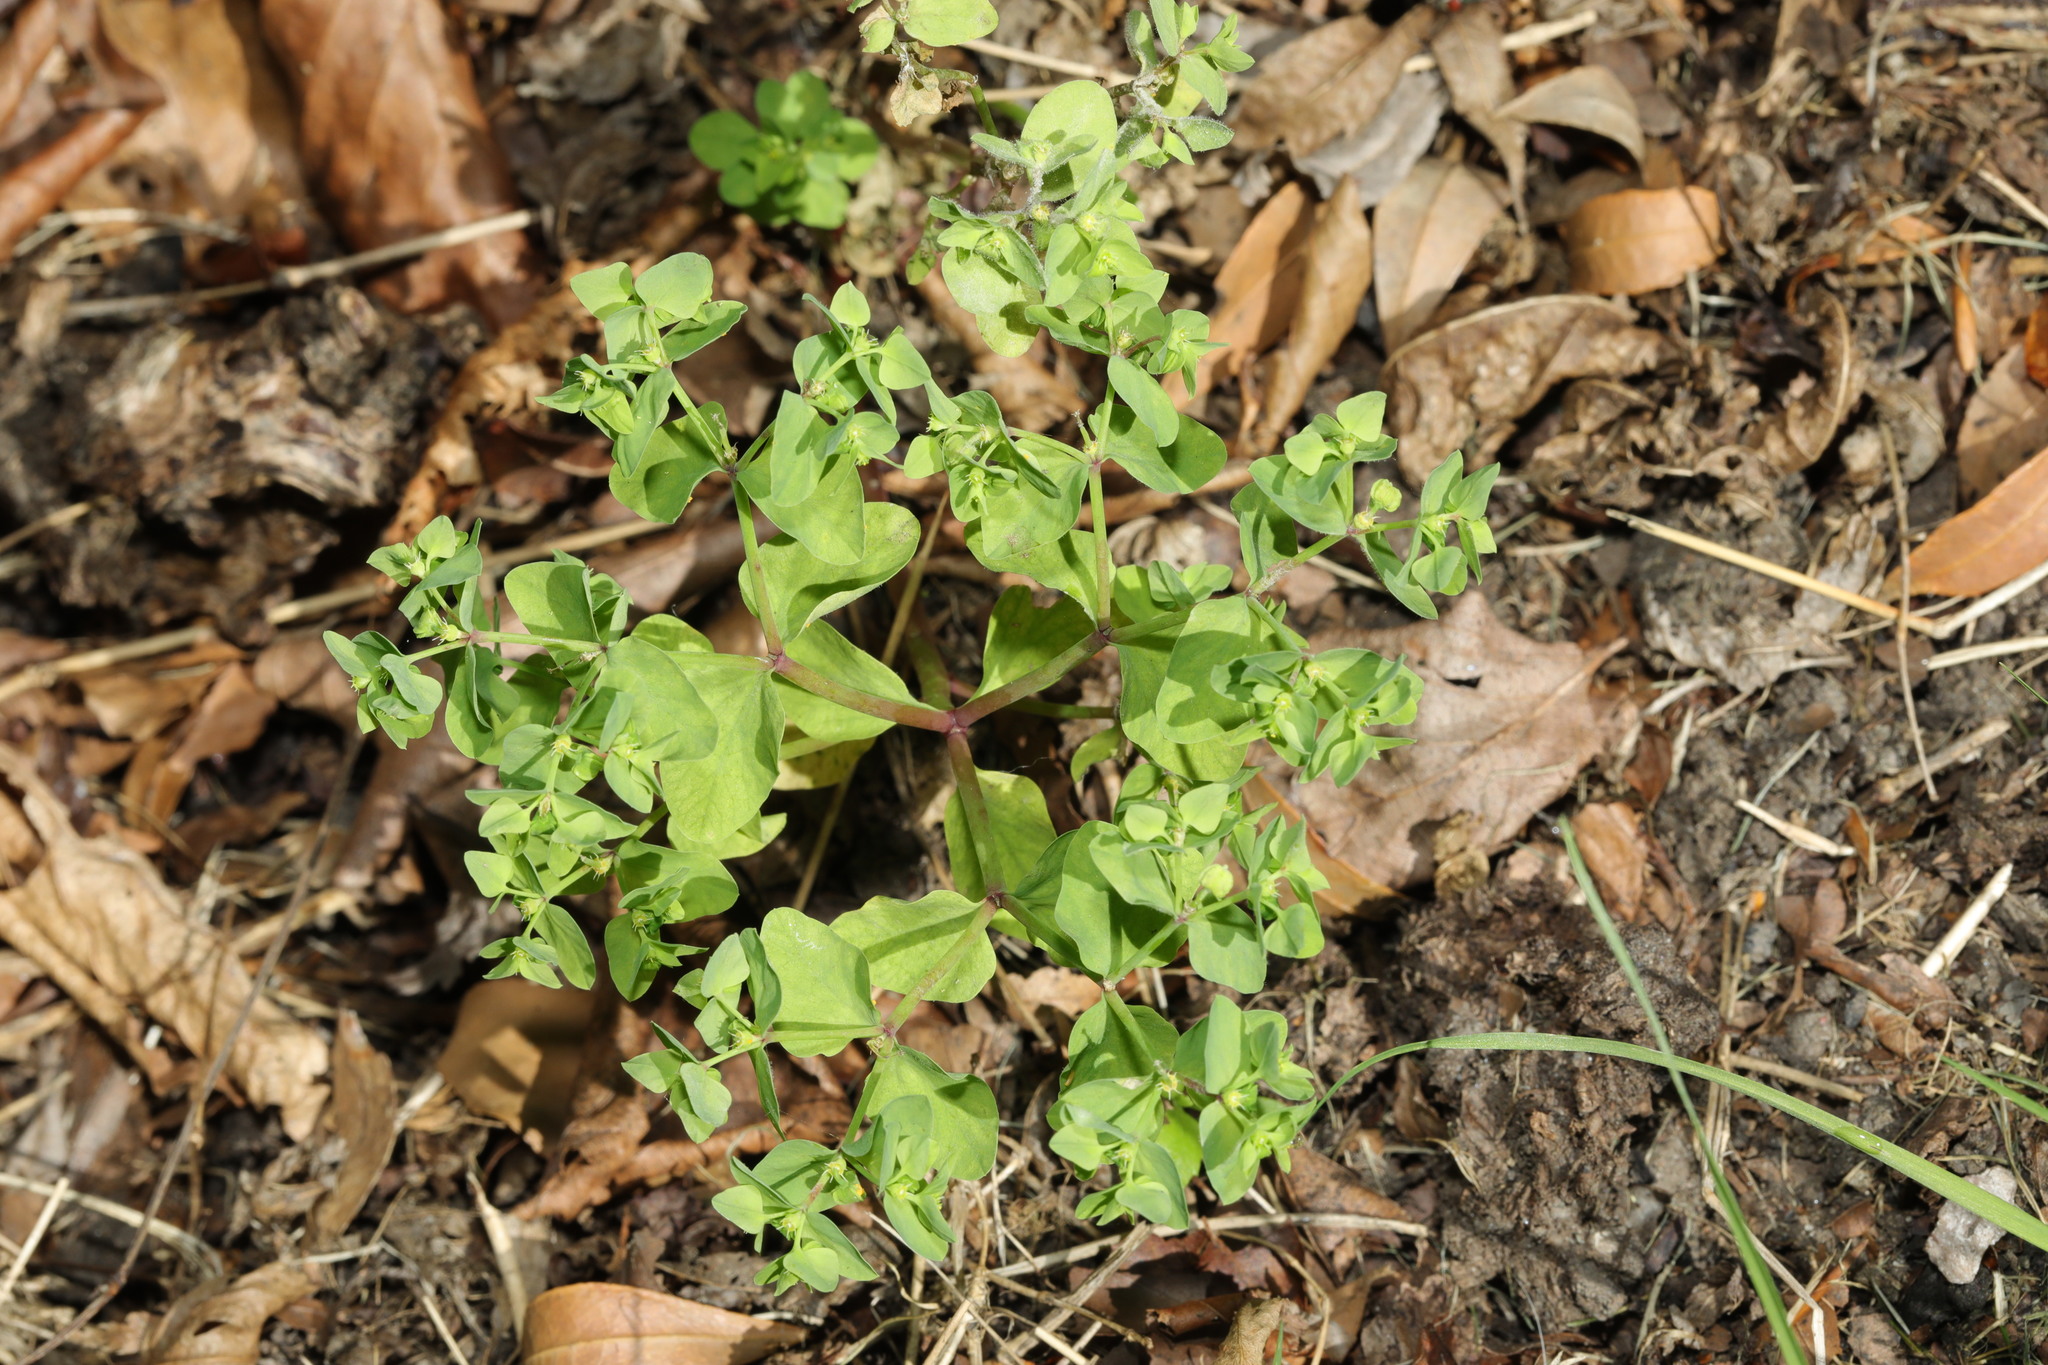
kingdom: Plantae
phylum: Tracheophyta
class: Magnoliopsida
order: Malpighiales
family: Euphorbiaceae
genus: Euphorbia
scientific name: Euphorbia peplus
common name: Petty spurge
